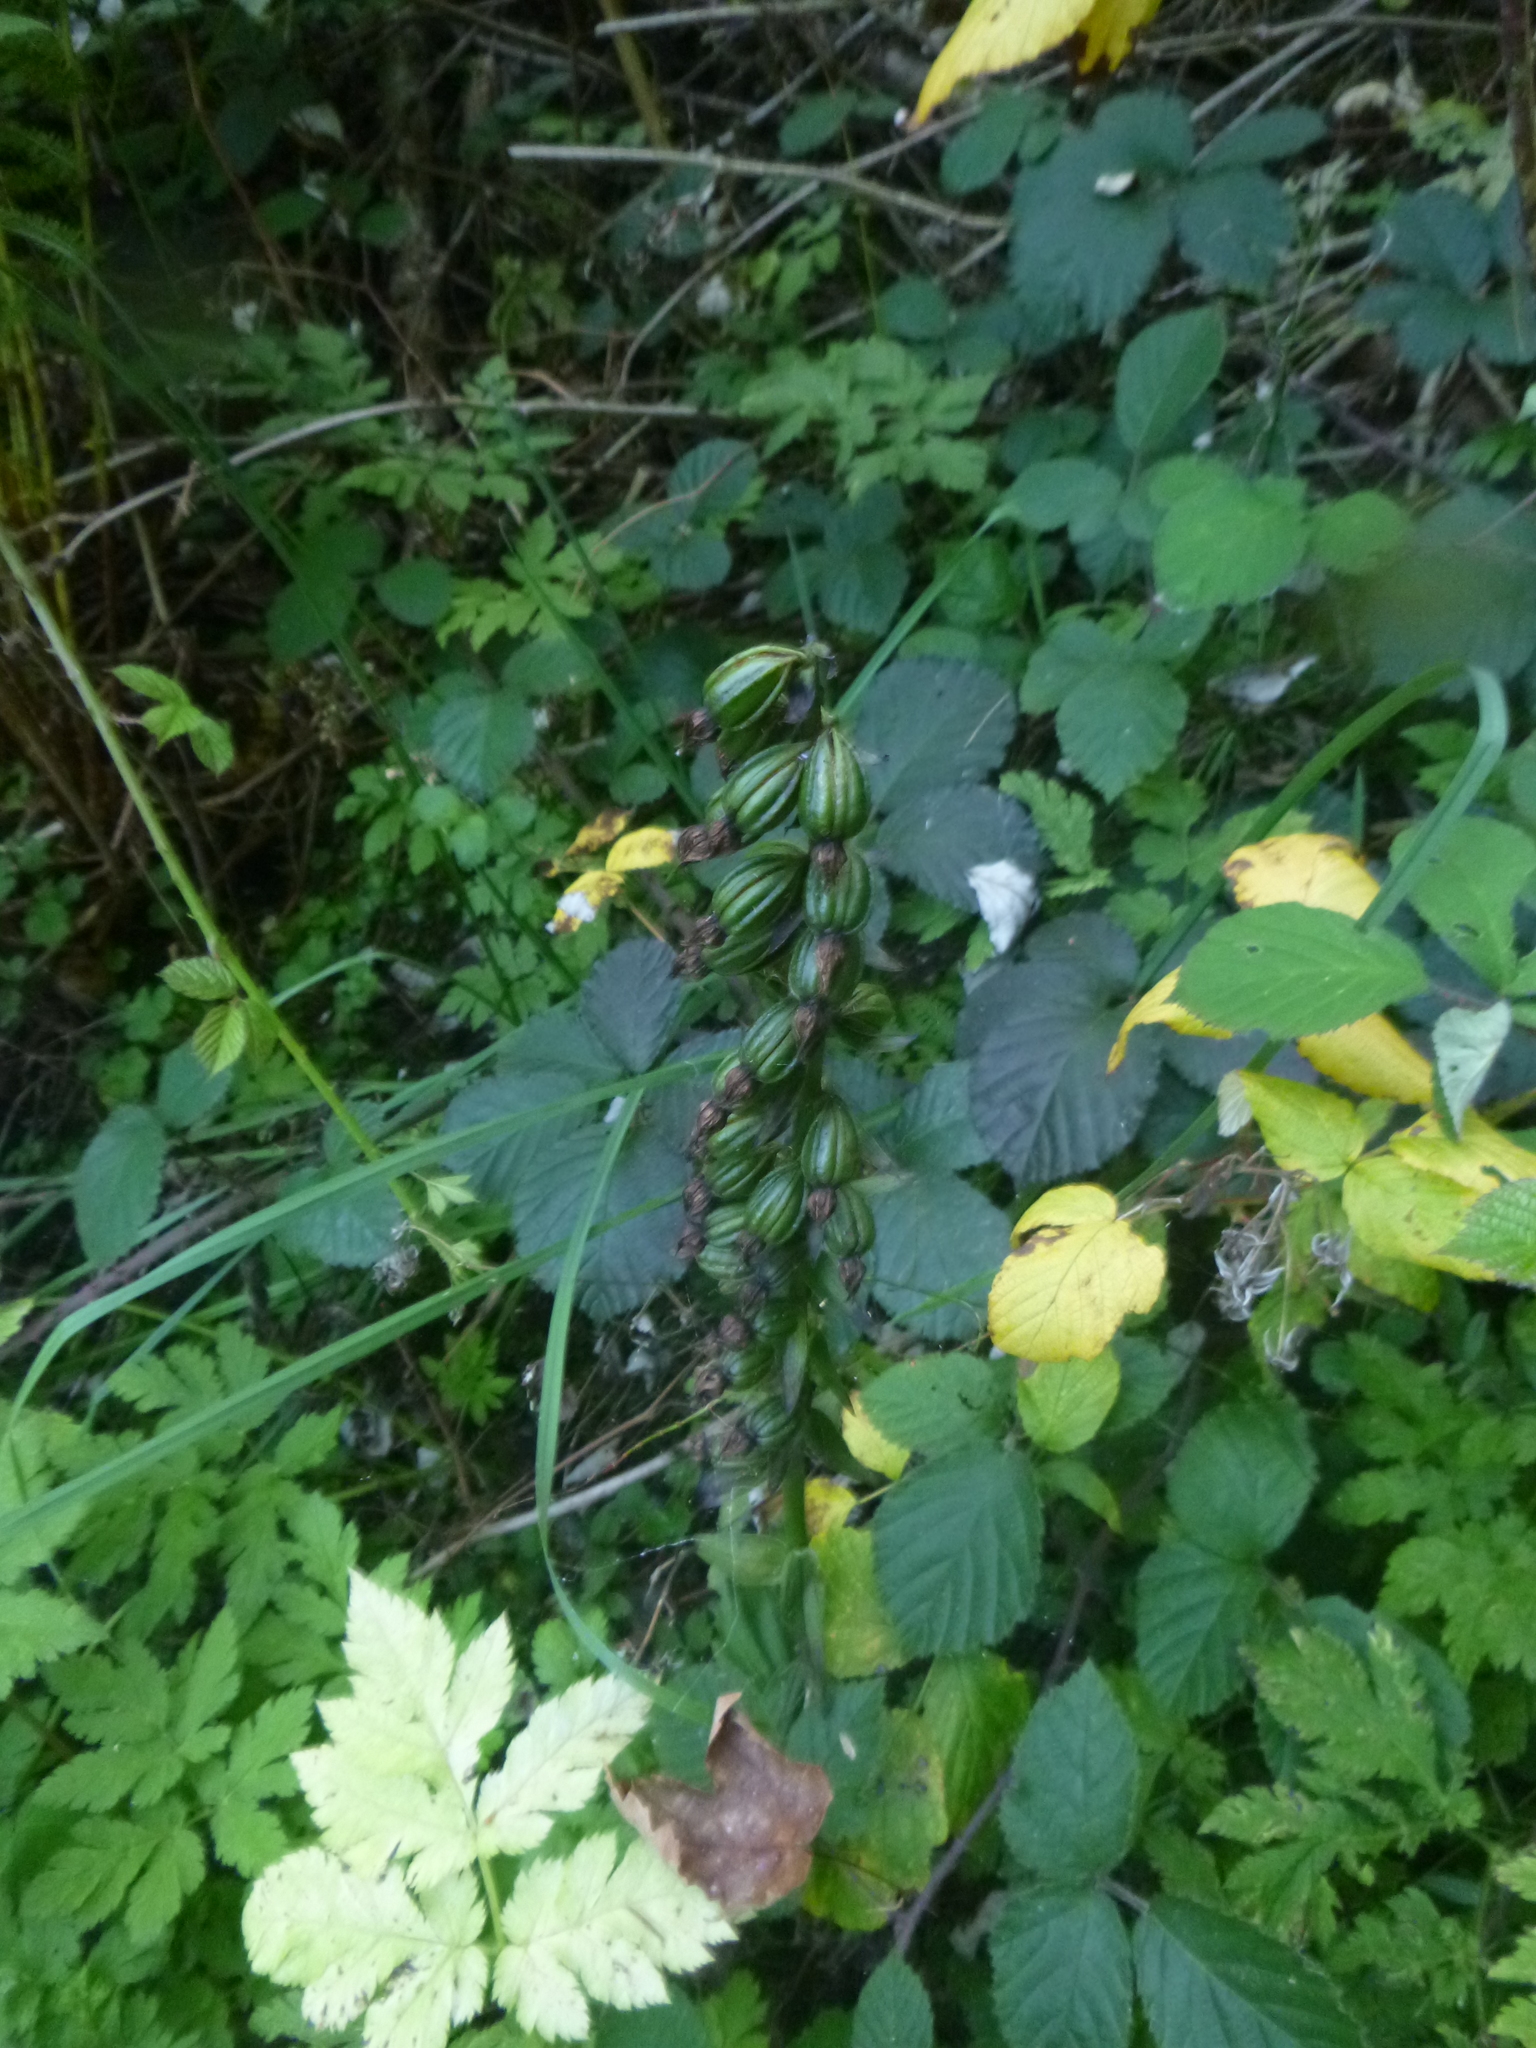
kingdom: Plantae
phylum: Tracheophyta
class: Liliopsida
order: Asparagales
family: Orchidaceae
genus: Epipactis
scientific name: Epipactis helleborine
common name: Broad-leaved helleborine
